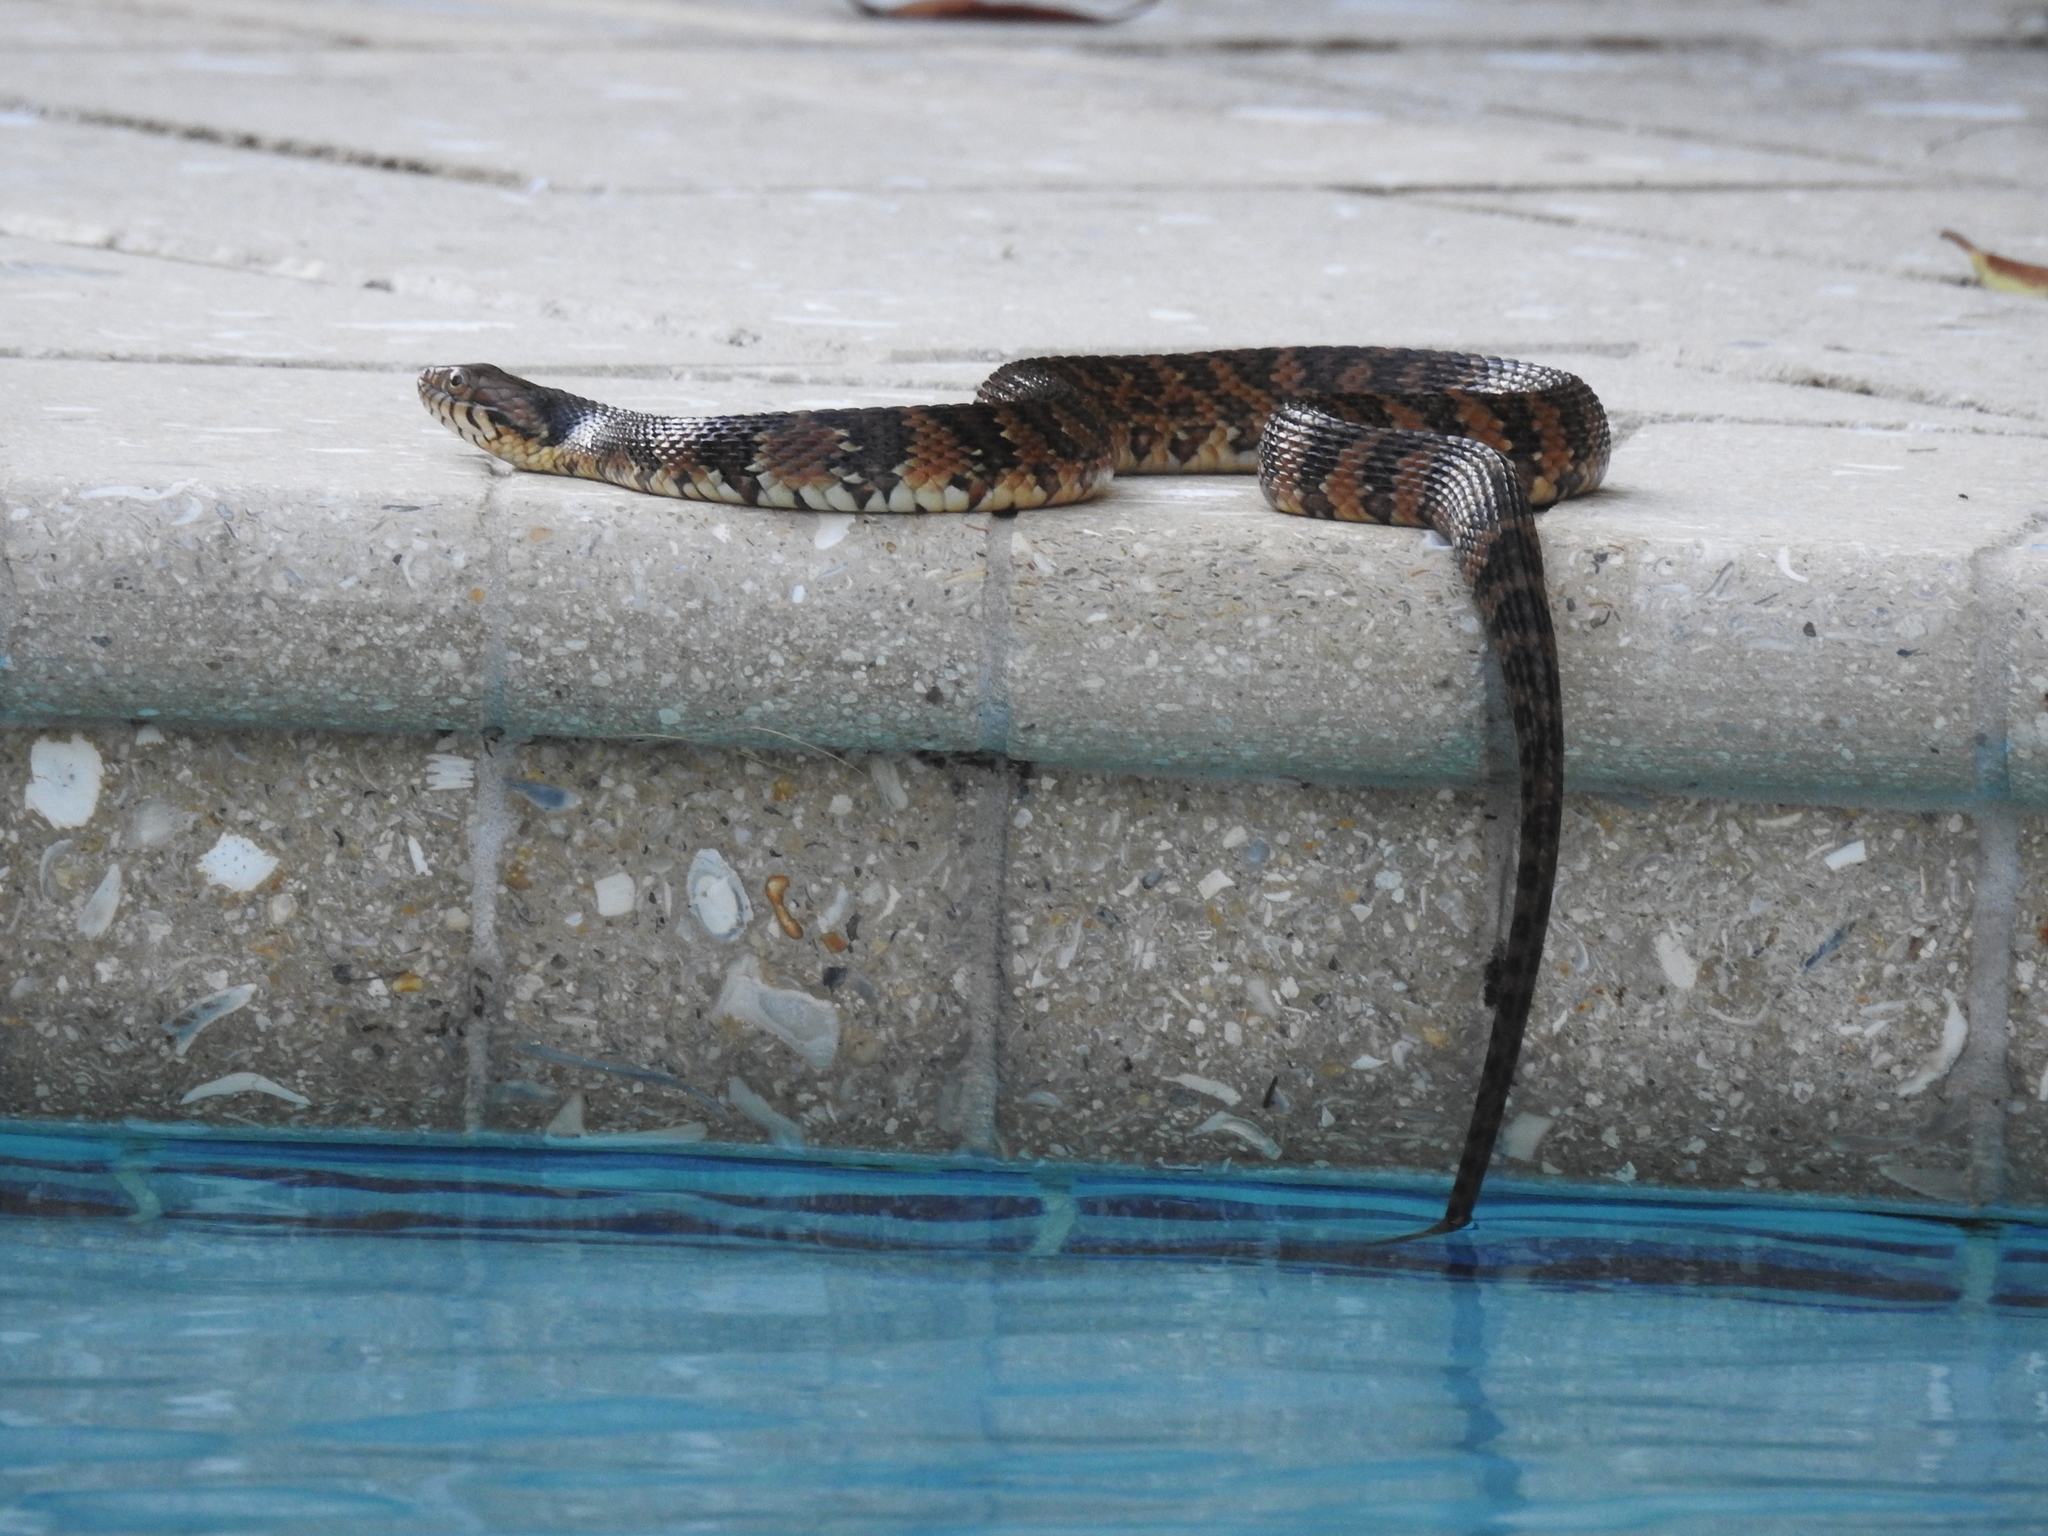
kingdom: Animalia
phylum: Chordata
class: Squamata
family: Colubridae
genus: Nerodia
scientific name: Nerodia fasciata
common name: Southern water snake
